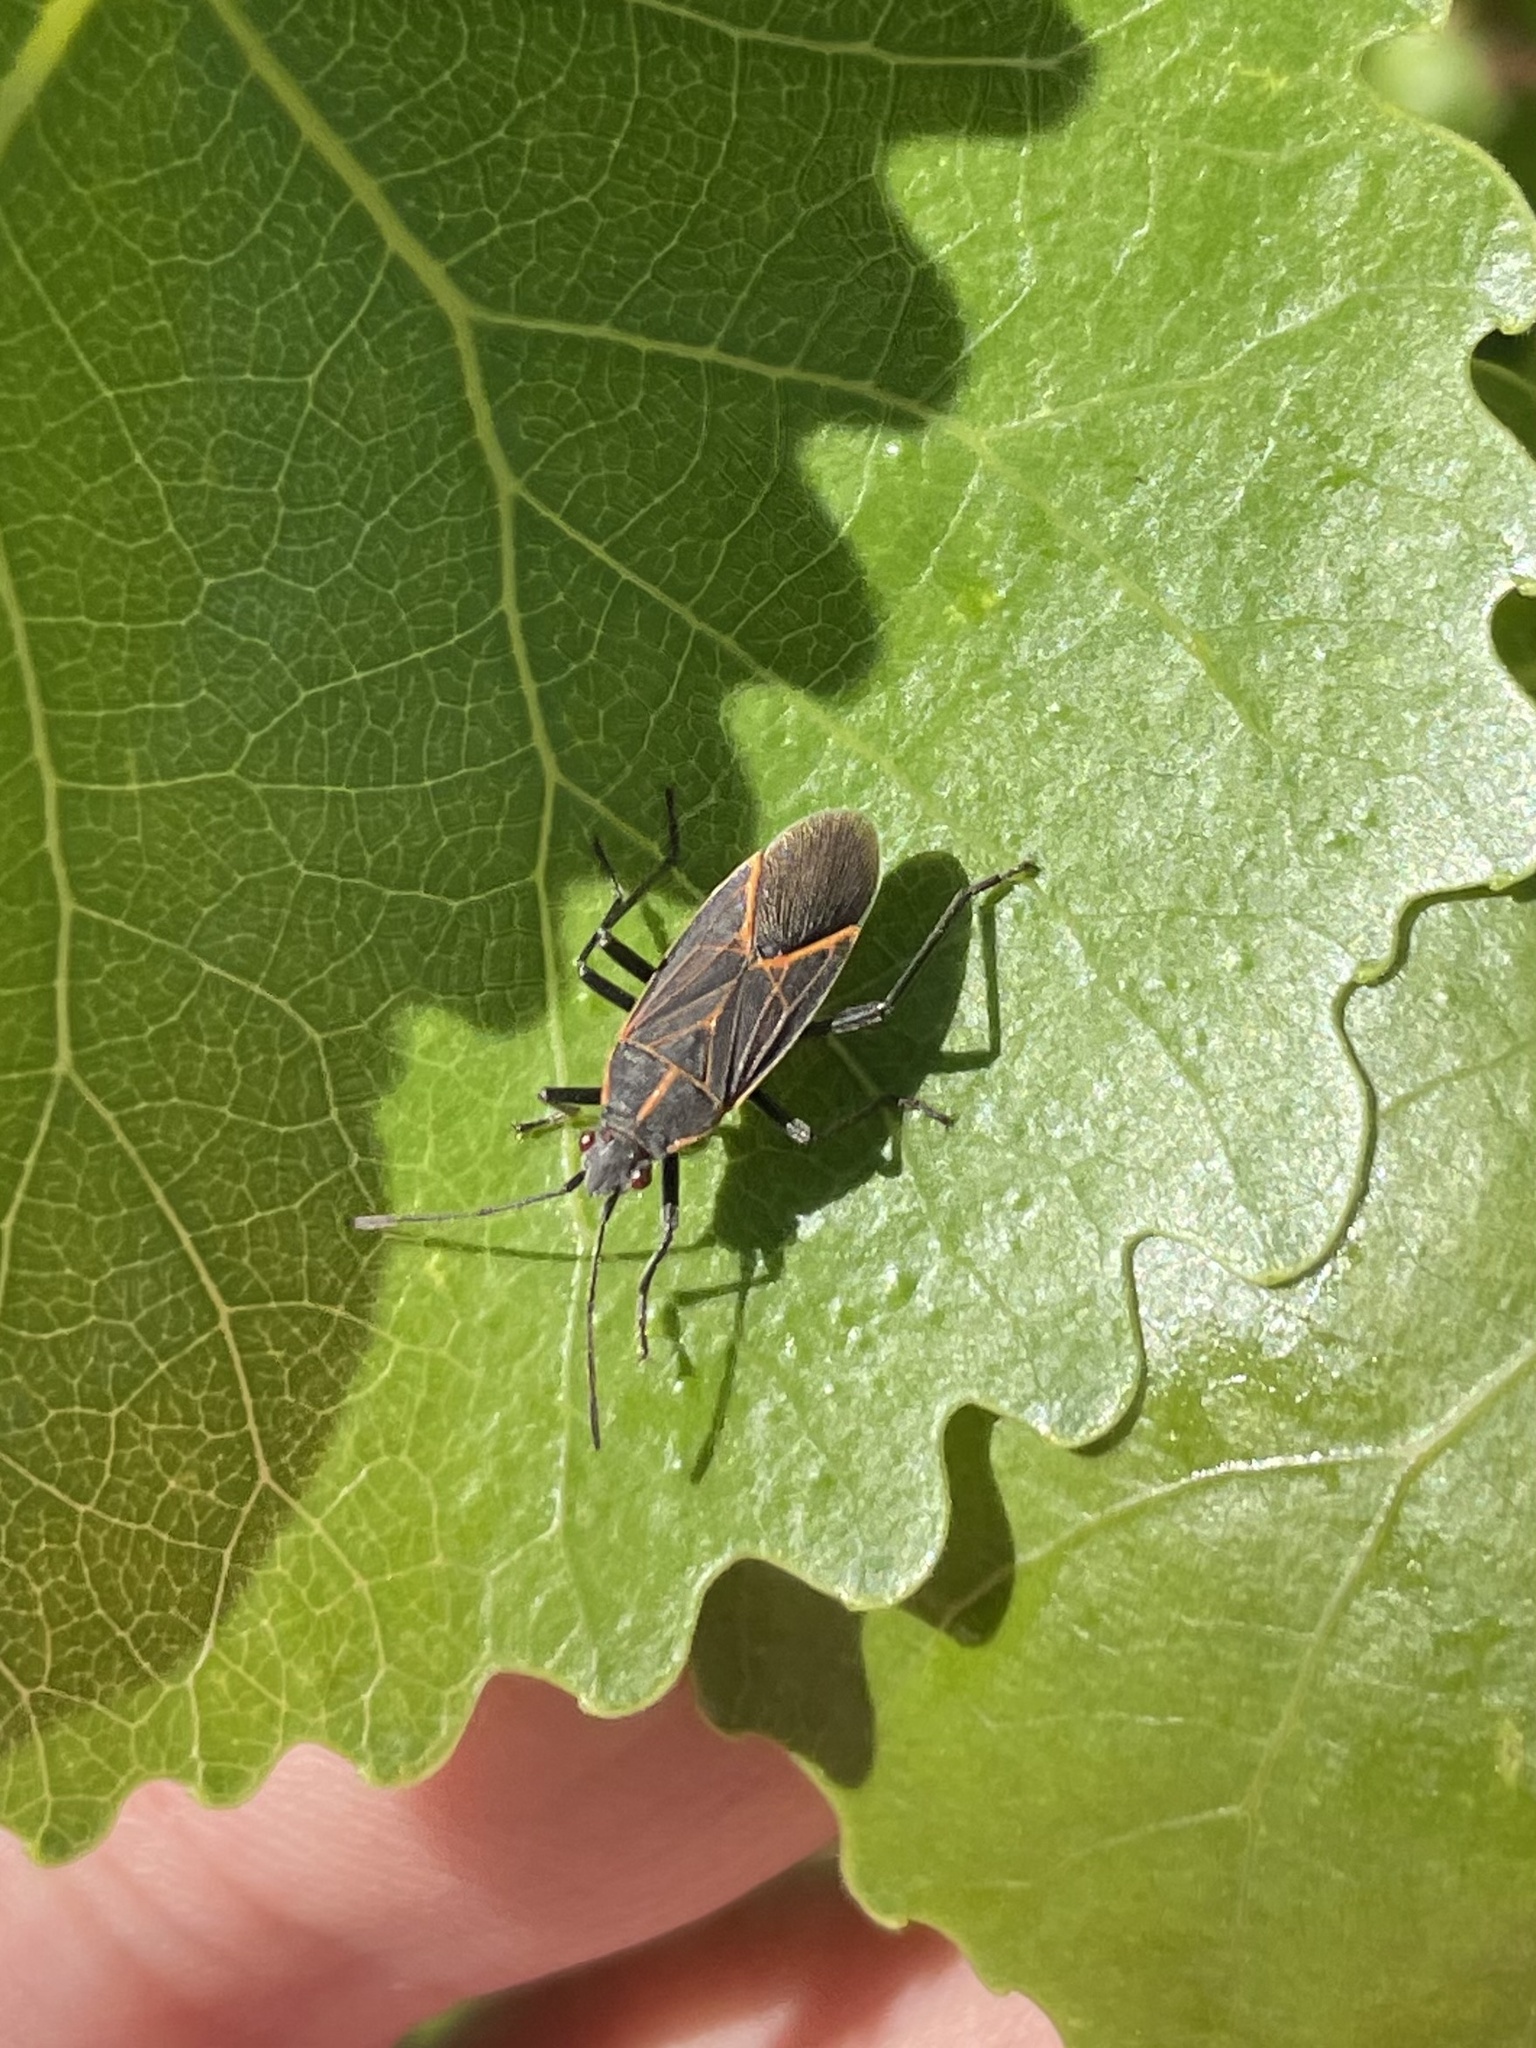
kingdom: Animalia
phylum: Arthropoda
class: Insecta
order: Hemiptera
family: Rhopalidae
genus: Boisea
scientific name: Boisea rubrolineata
